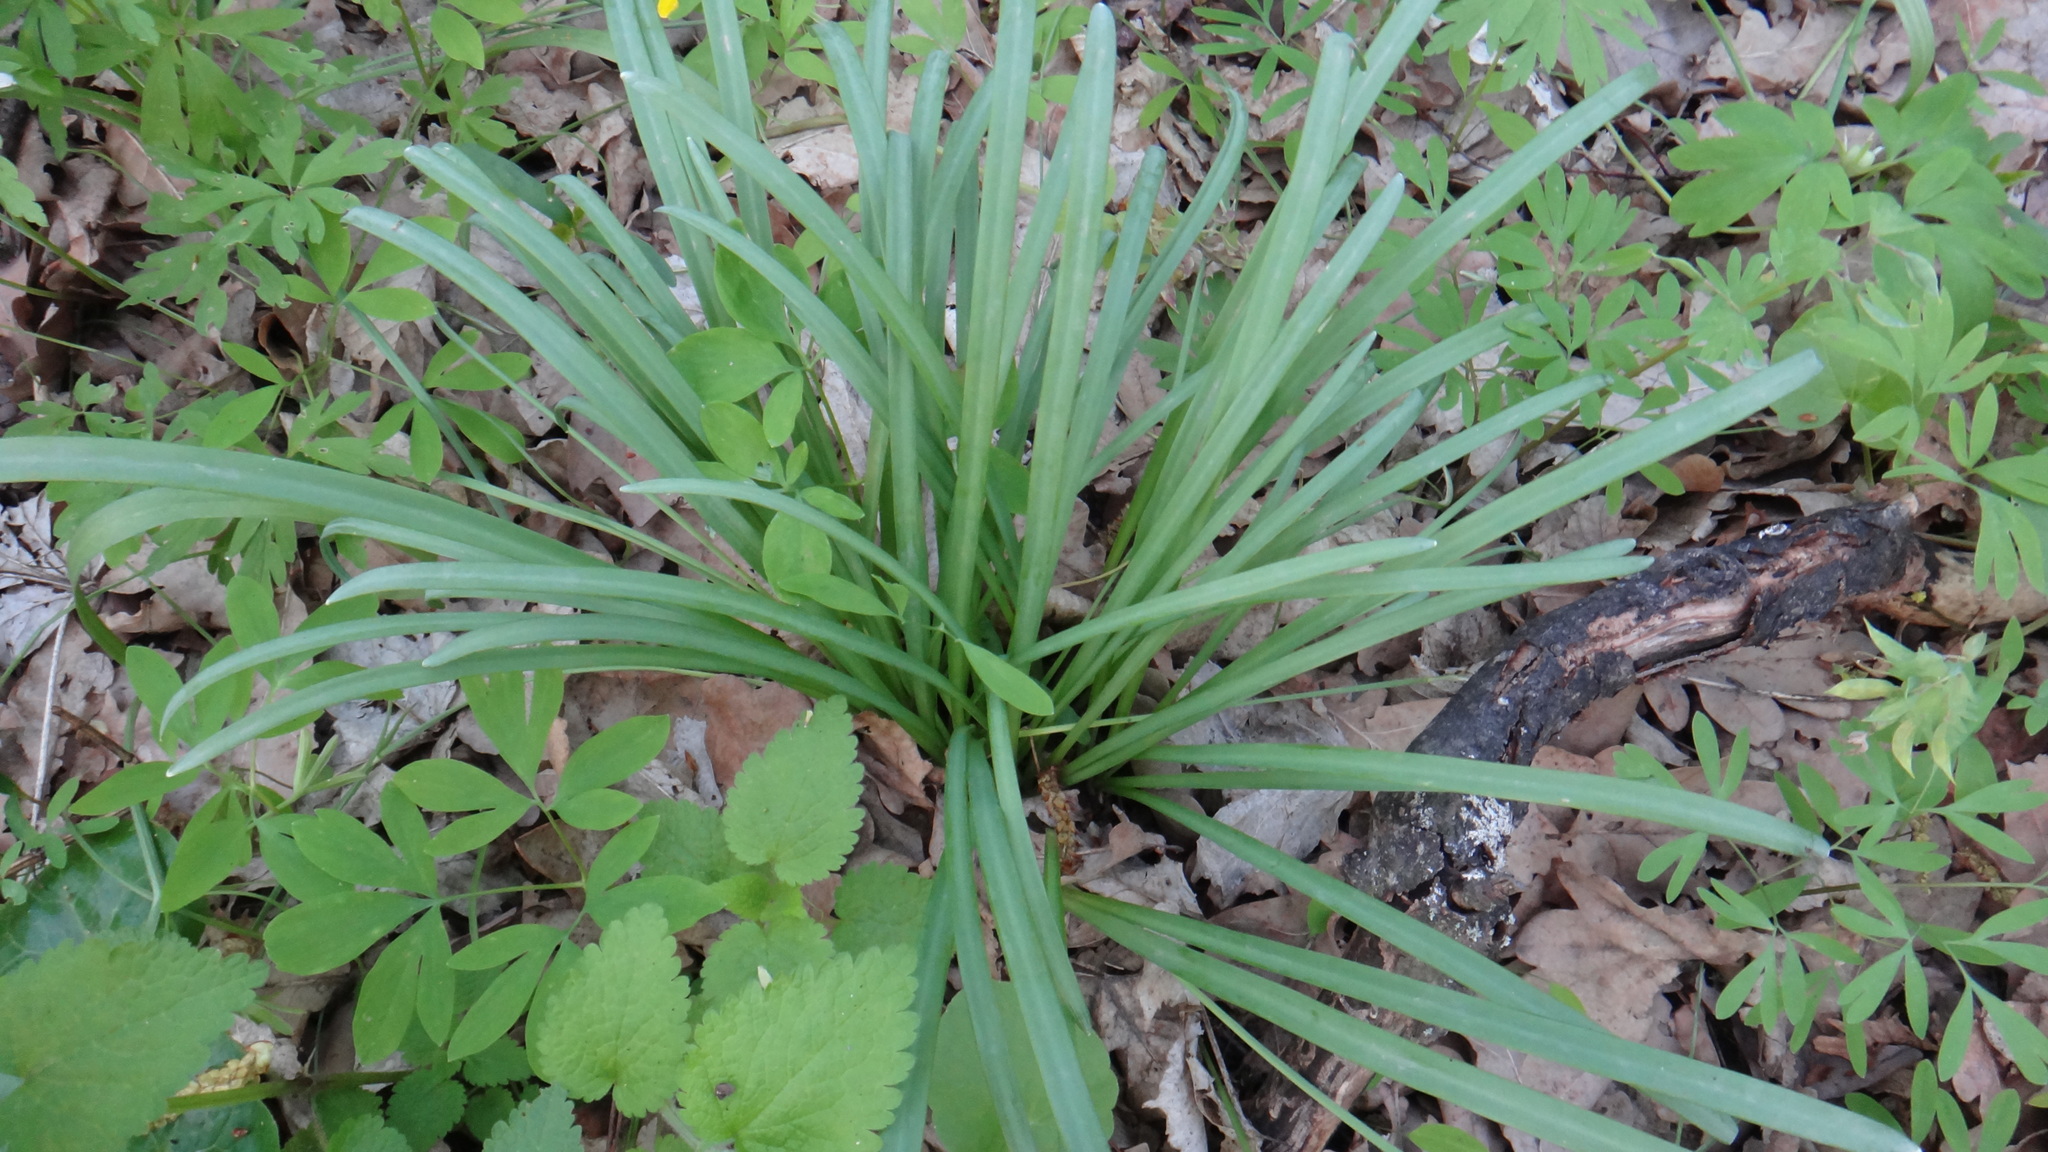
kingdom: Plantae
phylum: Tracheophyta
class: Liliopsida
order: Asparagales
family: Amaryllidaceae
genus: Galanthus
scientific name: Galanthus nivalis
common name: Snowdrop
